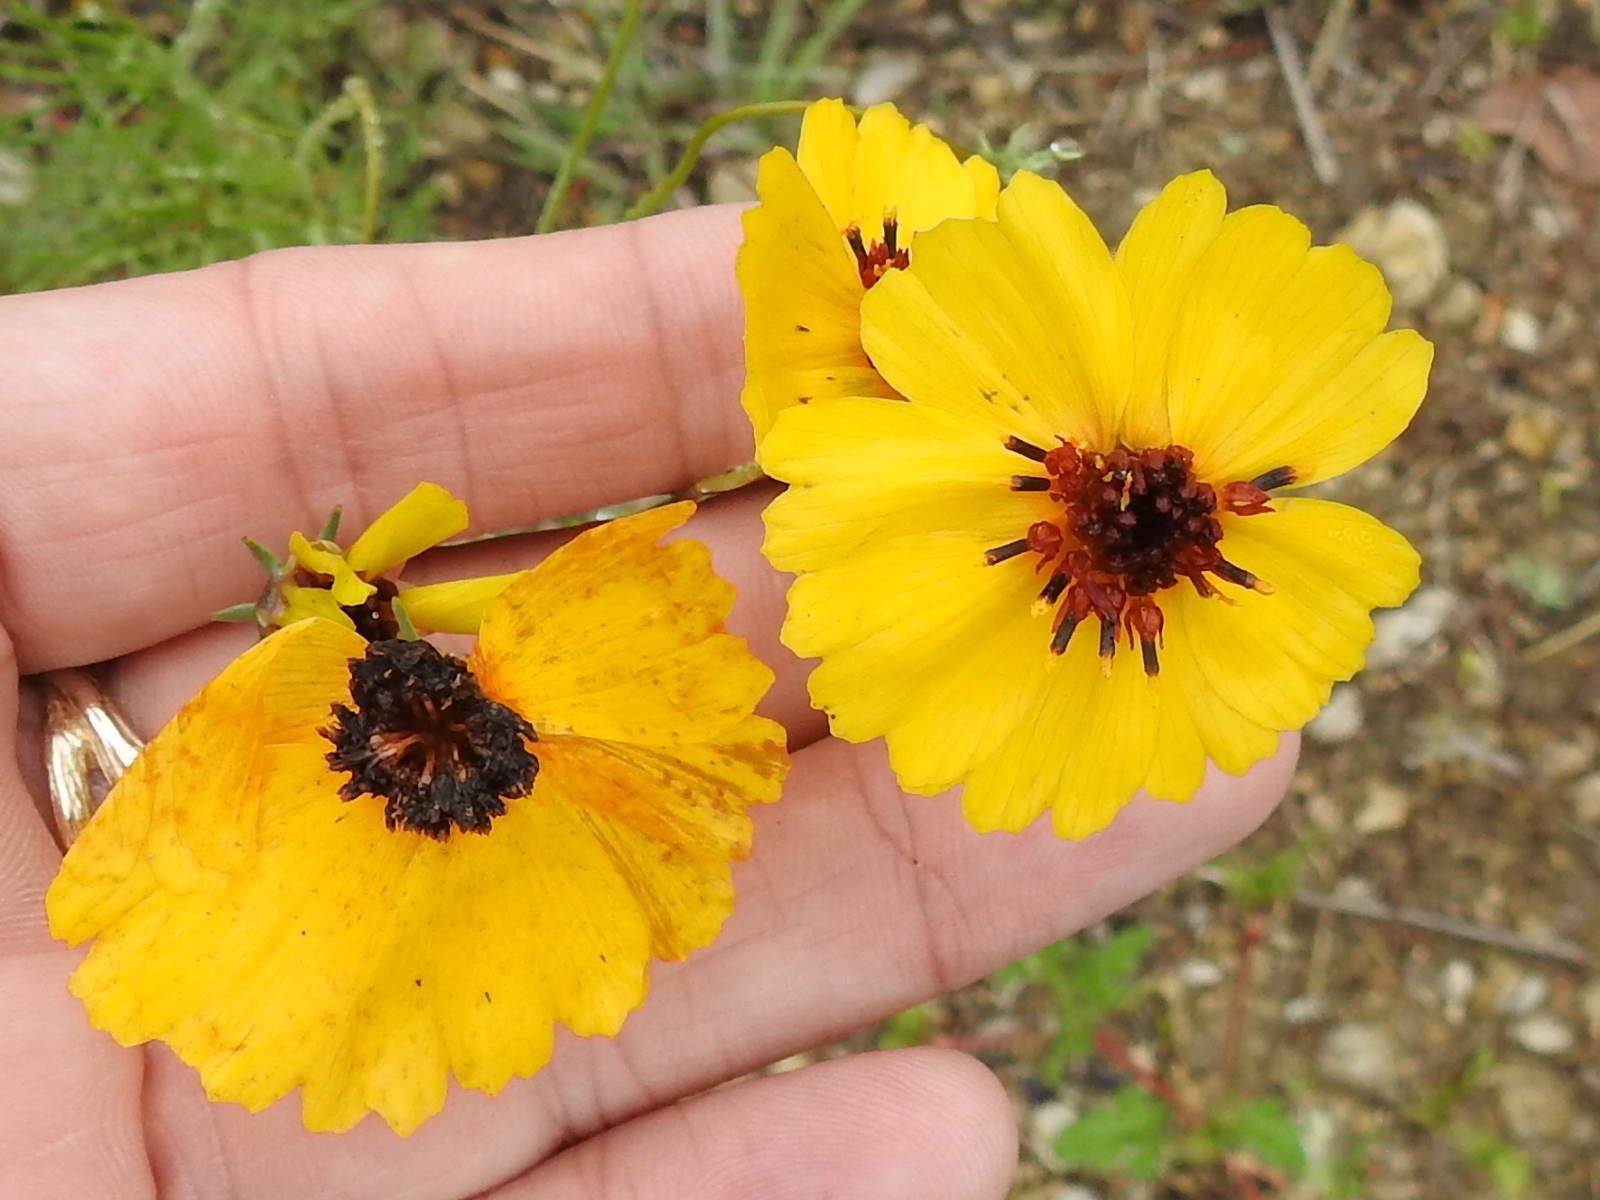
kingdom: Plantae
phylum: Tracheophyta
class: Magnoliopsida
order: Asterales
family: Asteraceae
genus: Thelesperma
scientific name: Thelesperma filifolium
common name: Stiff greenthread
